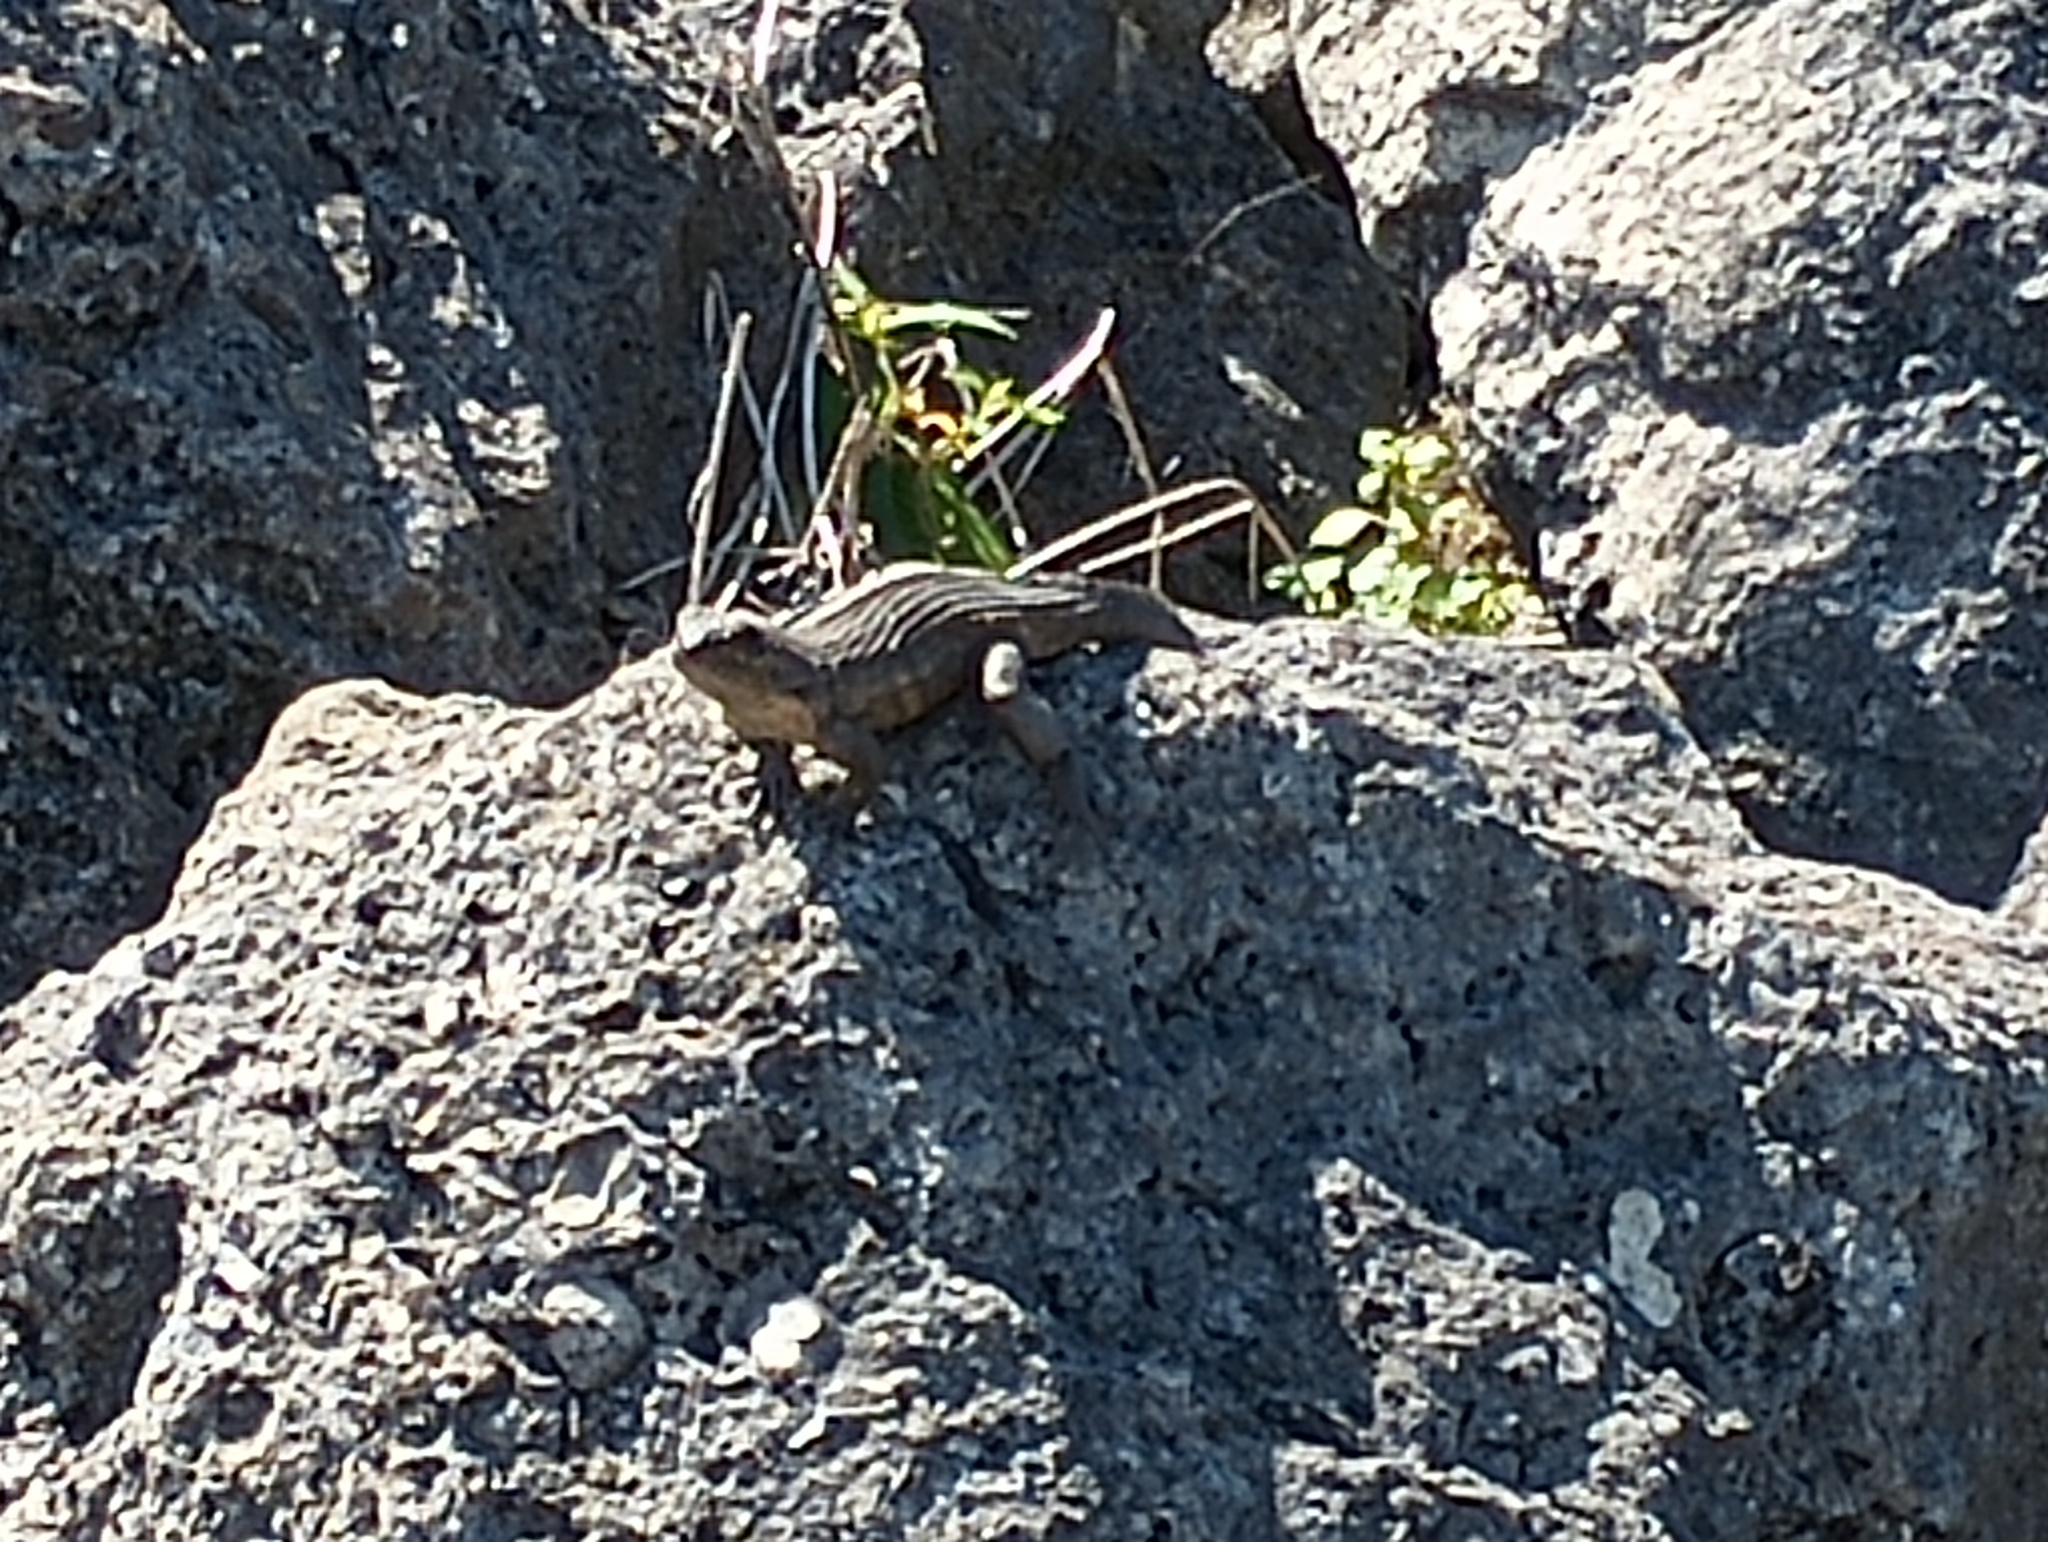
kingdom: Animalia
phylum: Chordata
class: Squamata
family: Leiocephalidae
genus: Leiocephalus
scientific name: Leiocephalus carinatus
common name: Northern curly-tailed lizard
